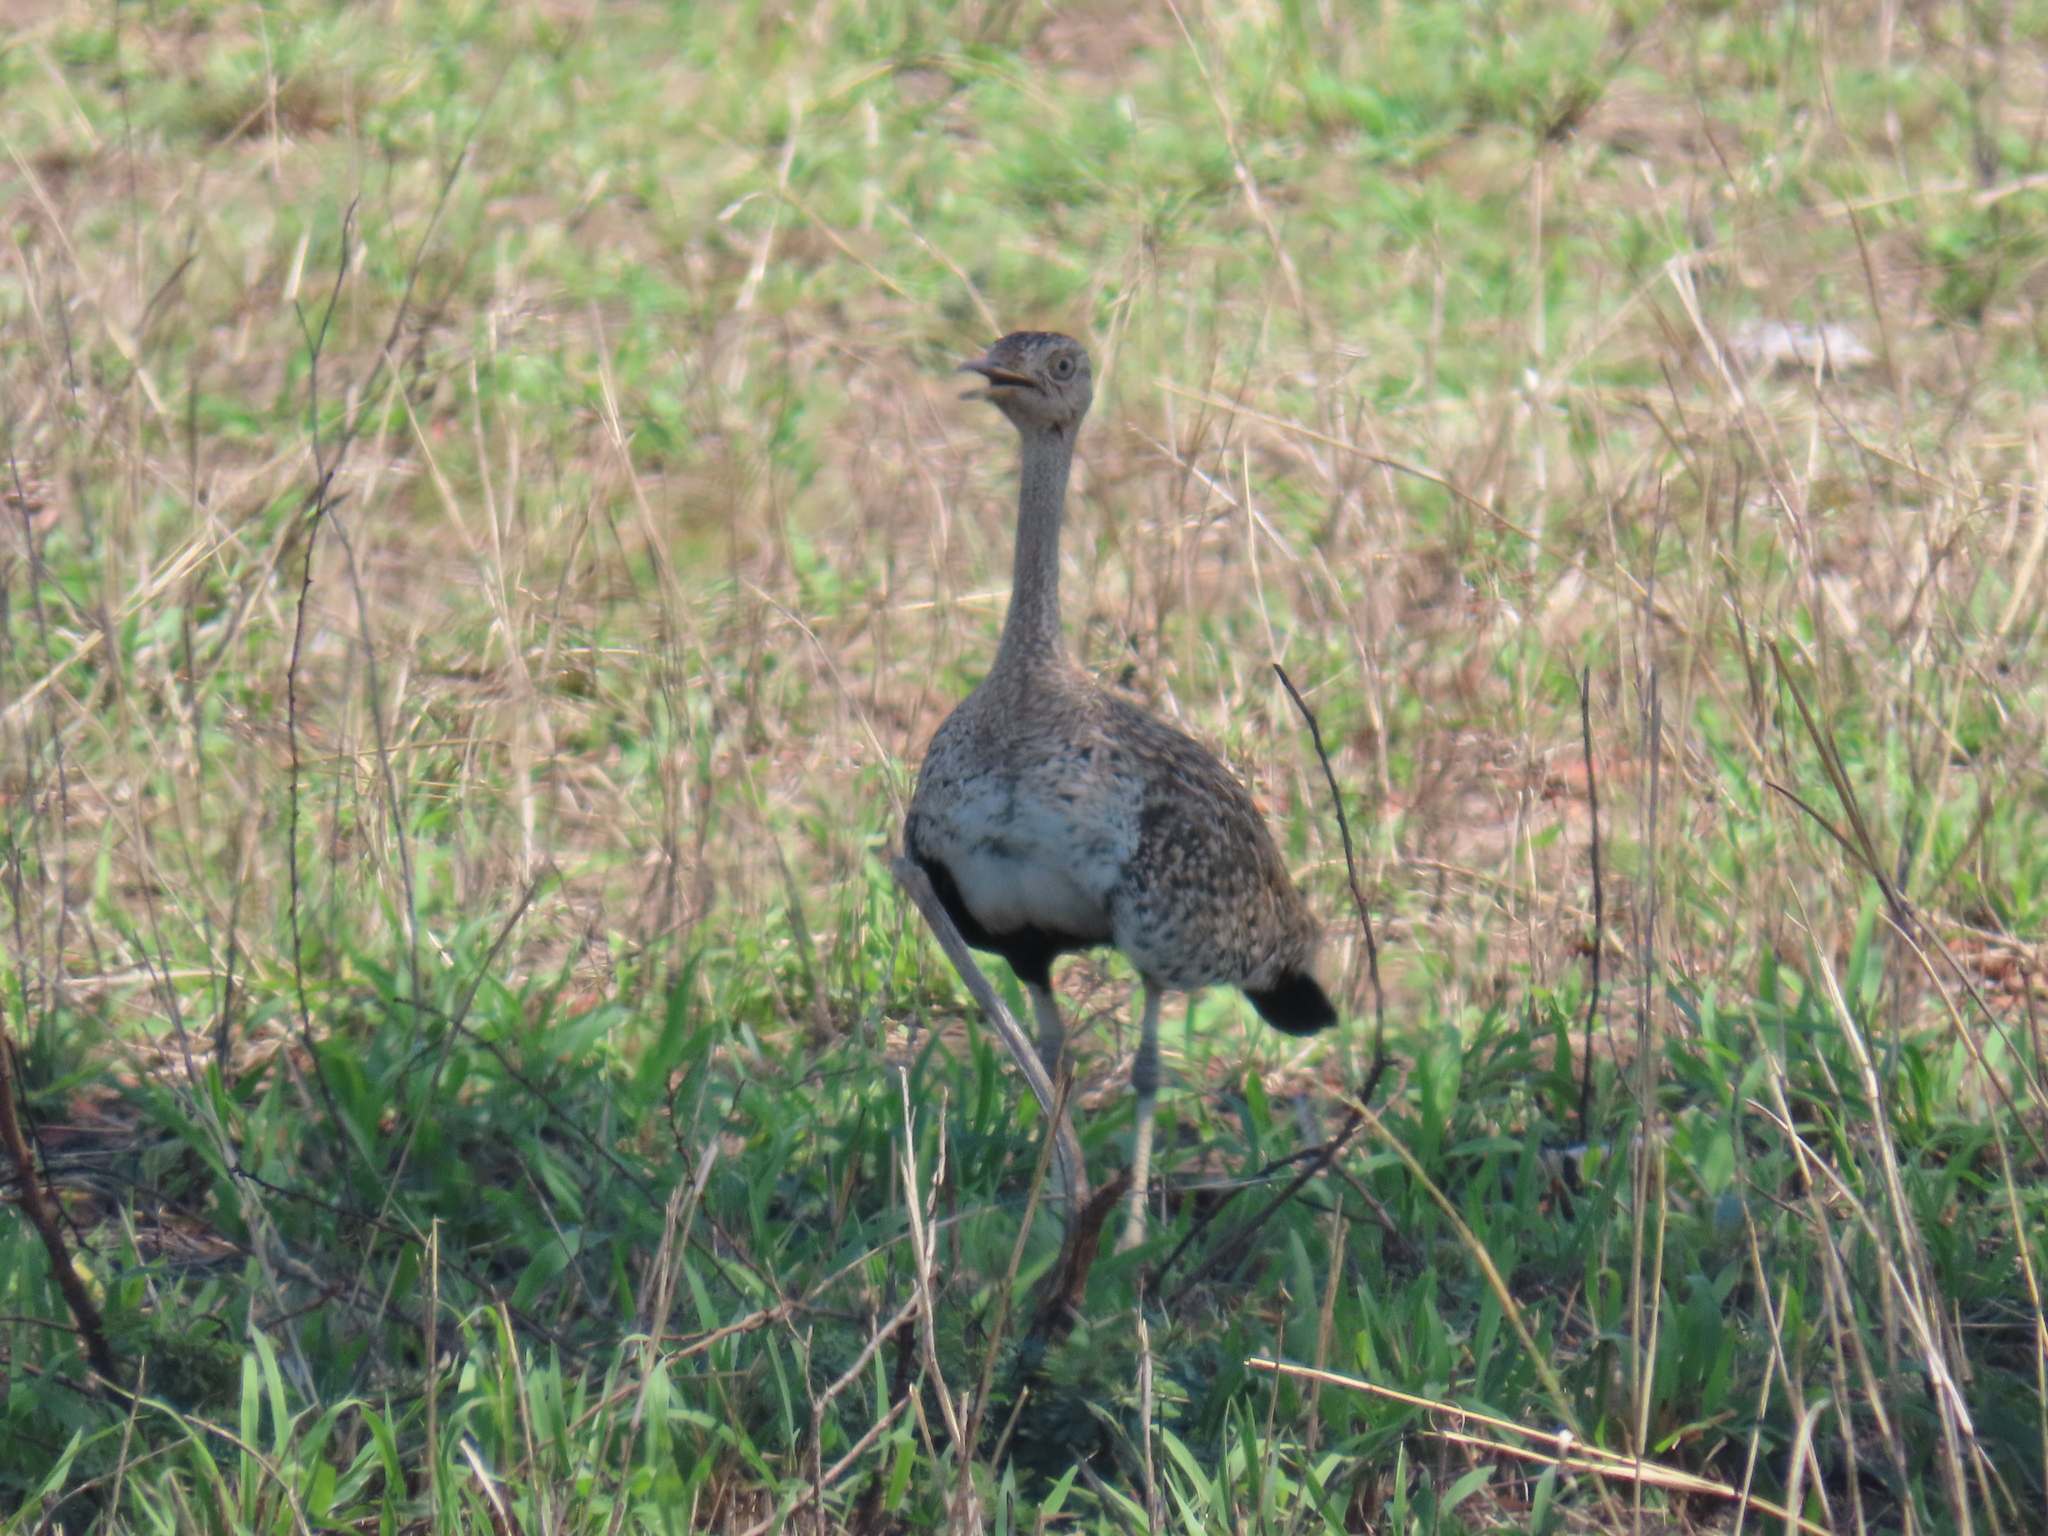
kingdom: Animalia
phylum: Chordata
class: Aves
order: Otidiformes
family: Otididae
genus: Lissotis
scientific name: Lissotis melanogaster
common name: Black-bellied bustard
